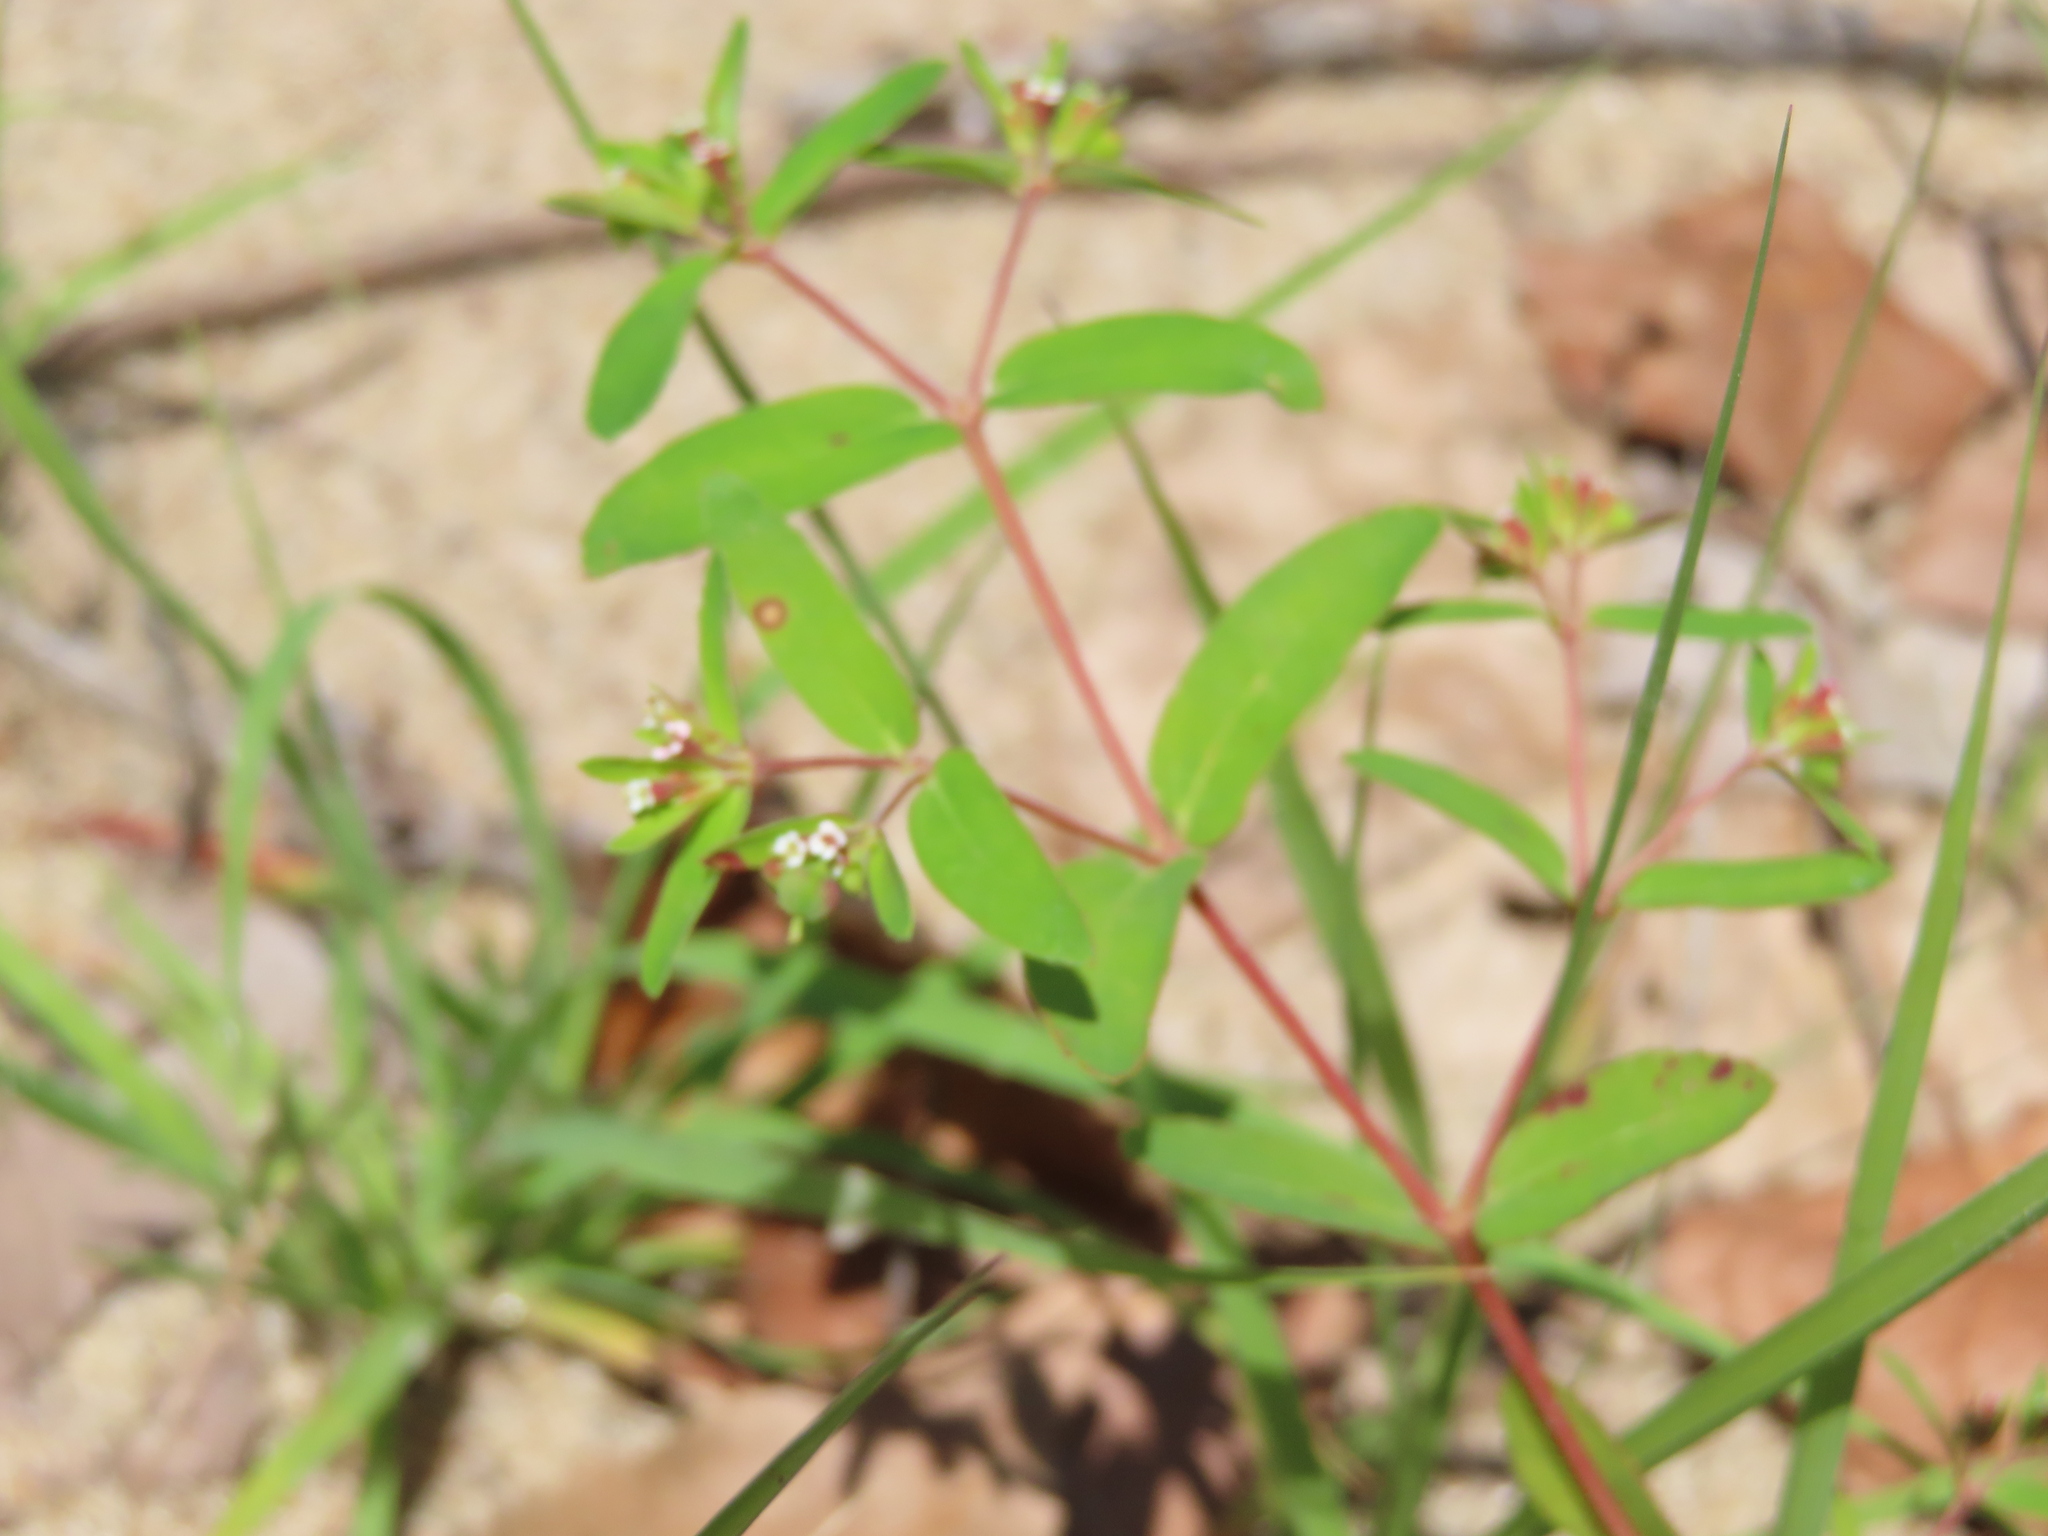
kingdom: Plantae
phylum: Tracheophyta
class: Magnoliopsida
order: Malpighiales
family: Euphorbiaceae
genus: Euphorbia
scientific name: Euphorbia nutans
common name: Eyebane
